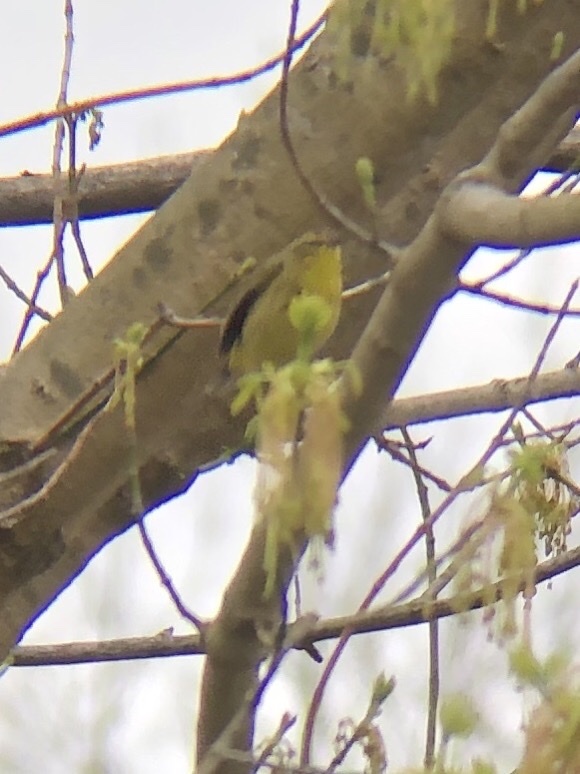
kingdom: Animalia
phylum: Chordata
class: Aves
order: Passeriformes
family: Parulidae
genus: Setophaga
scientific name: Setophaga palmarum
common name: Palm warbler
